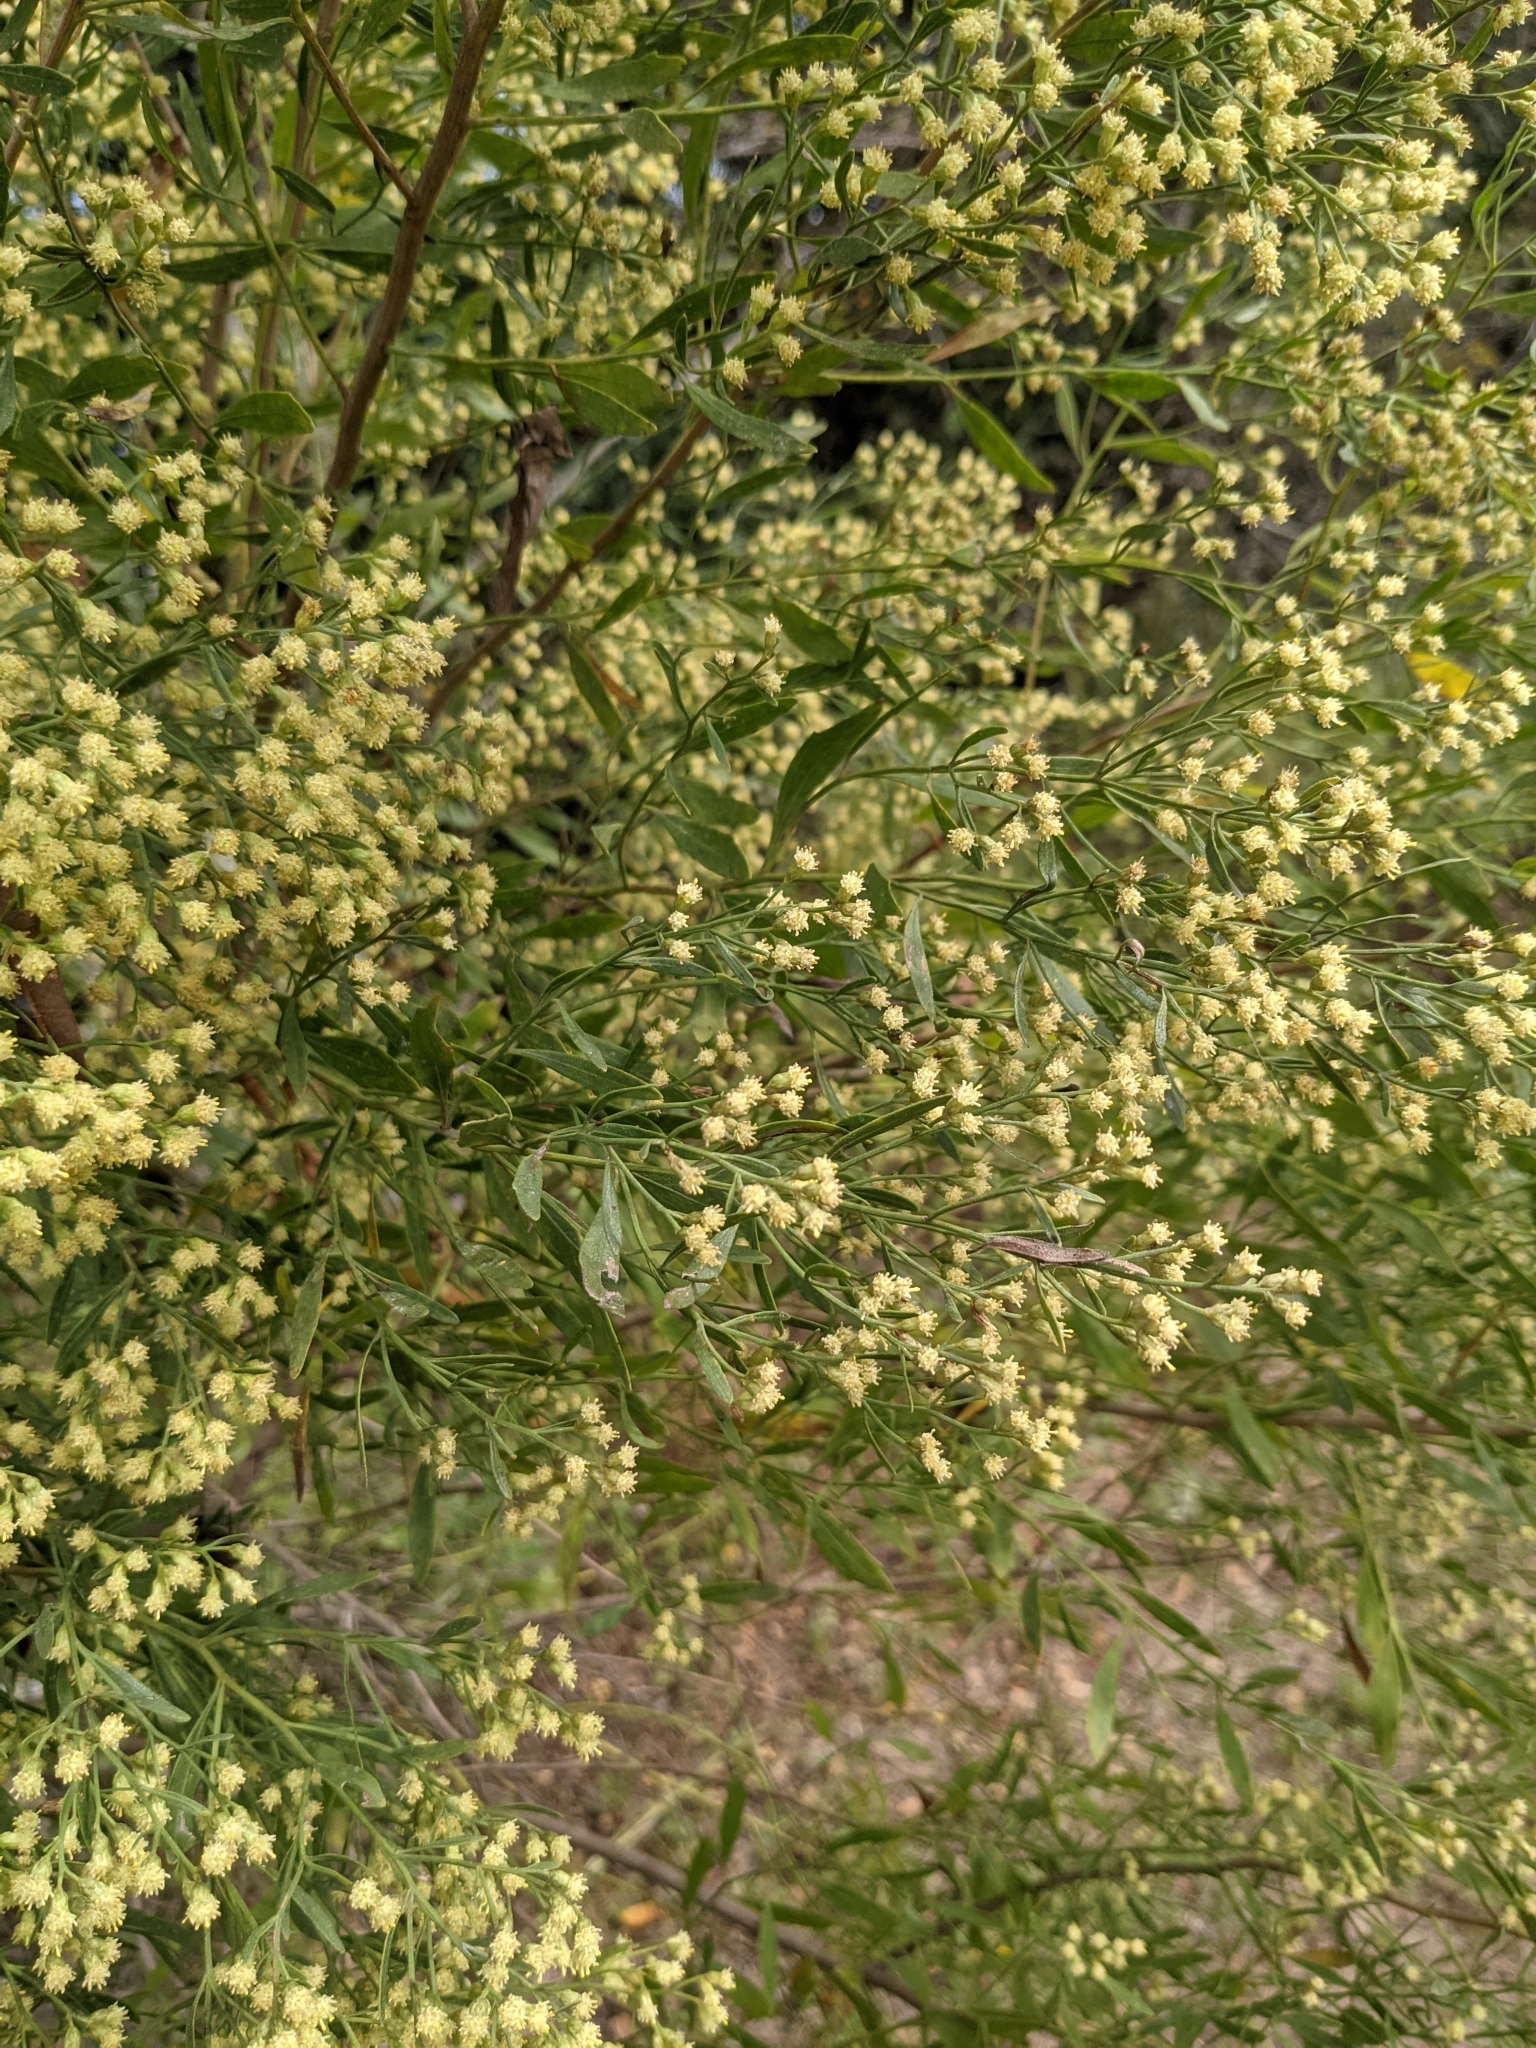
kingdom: Plantae
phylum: Tracheophyta
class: Magnoliopsida
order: Asterales
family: Asteraceae
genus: Baccharis
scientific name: Baccharis halimifolia
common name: Eastern baccharis
